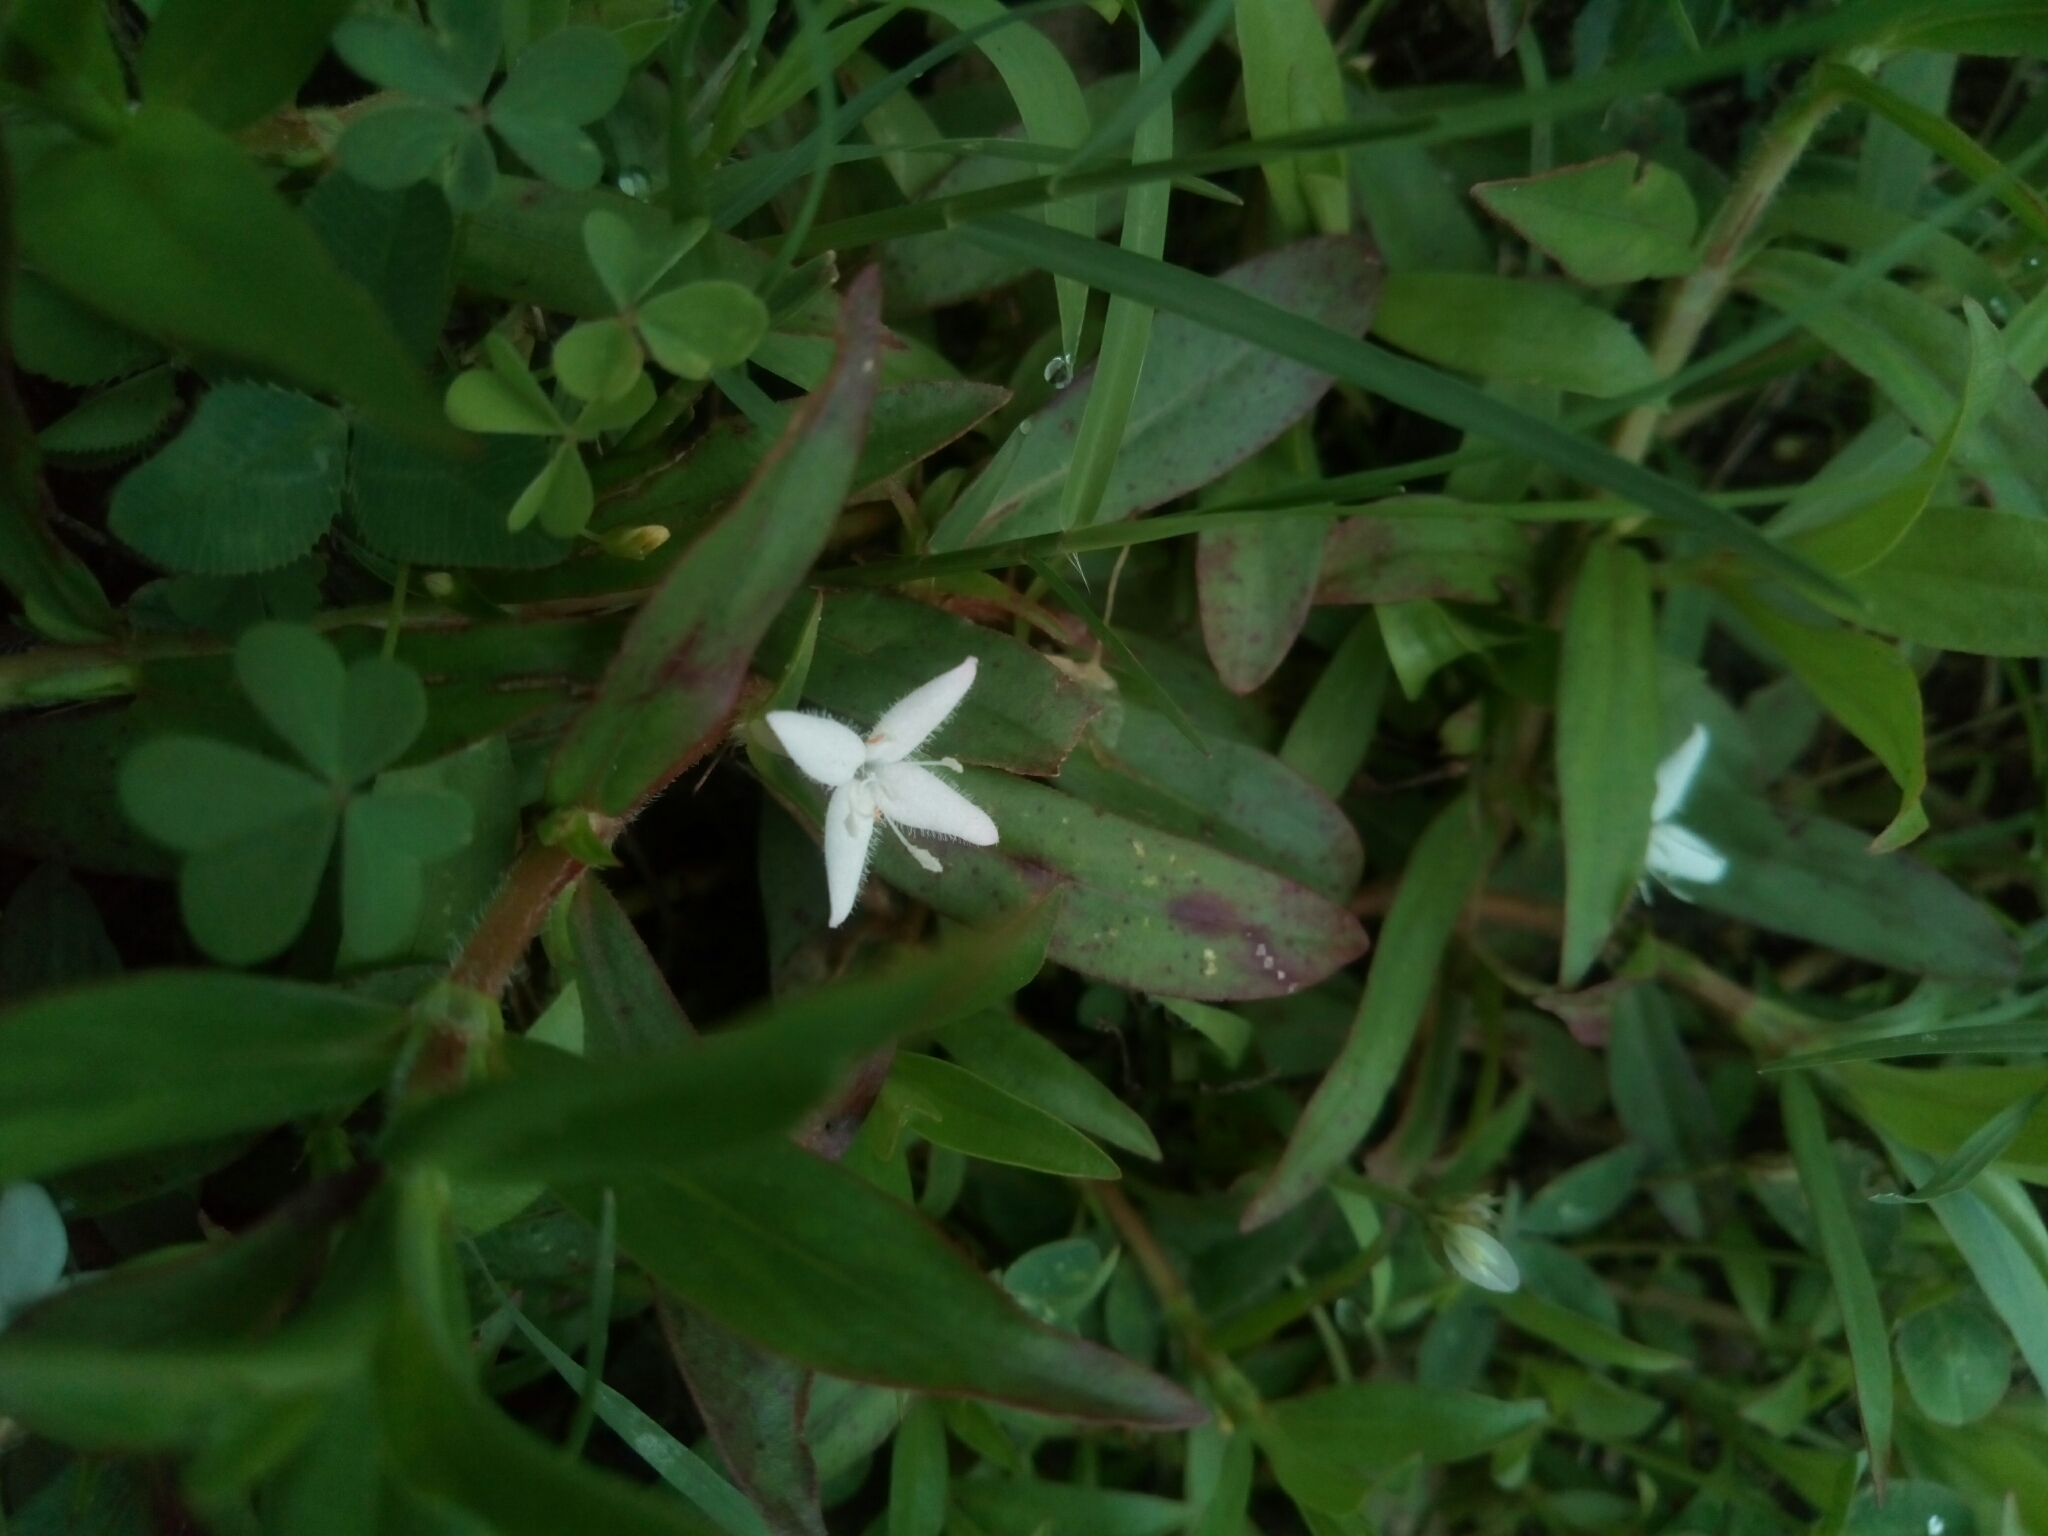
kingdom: Plantae
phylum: Tracheophyta
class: Magnoliopsida
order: Gentianales
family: Rubiaceae
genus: Diodia
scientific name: Diodia virginiana
